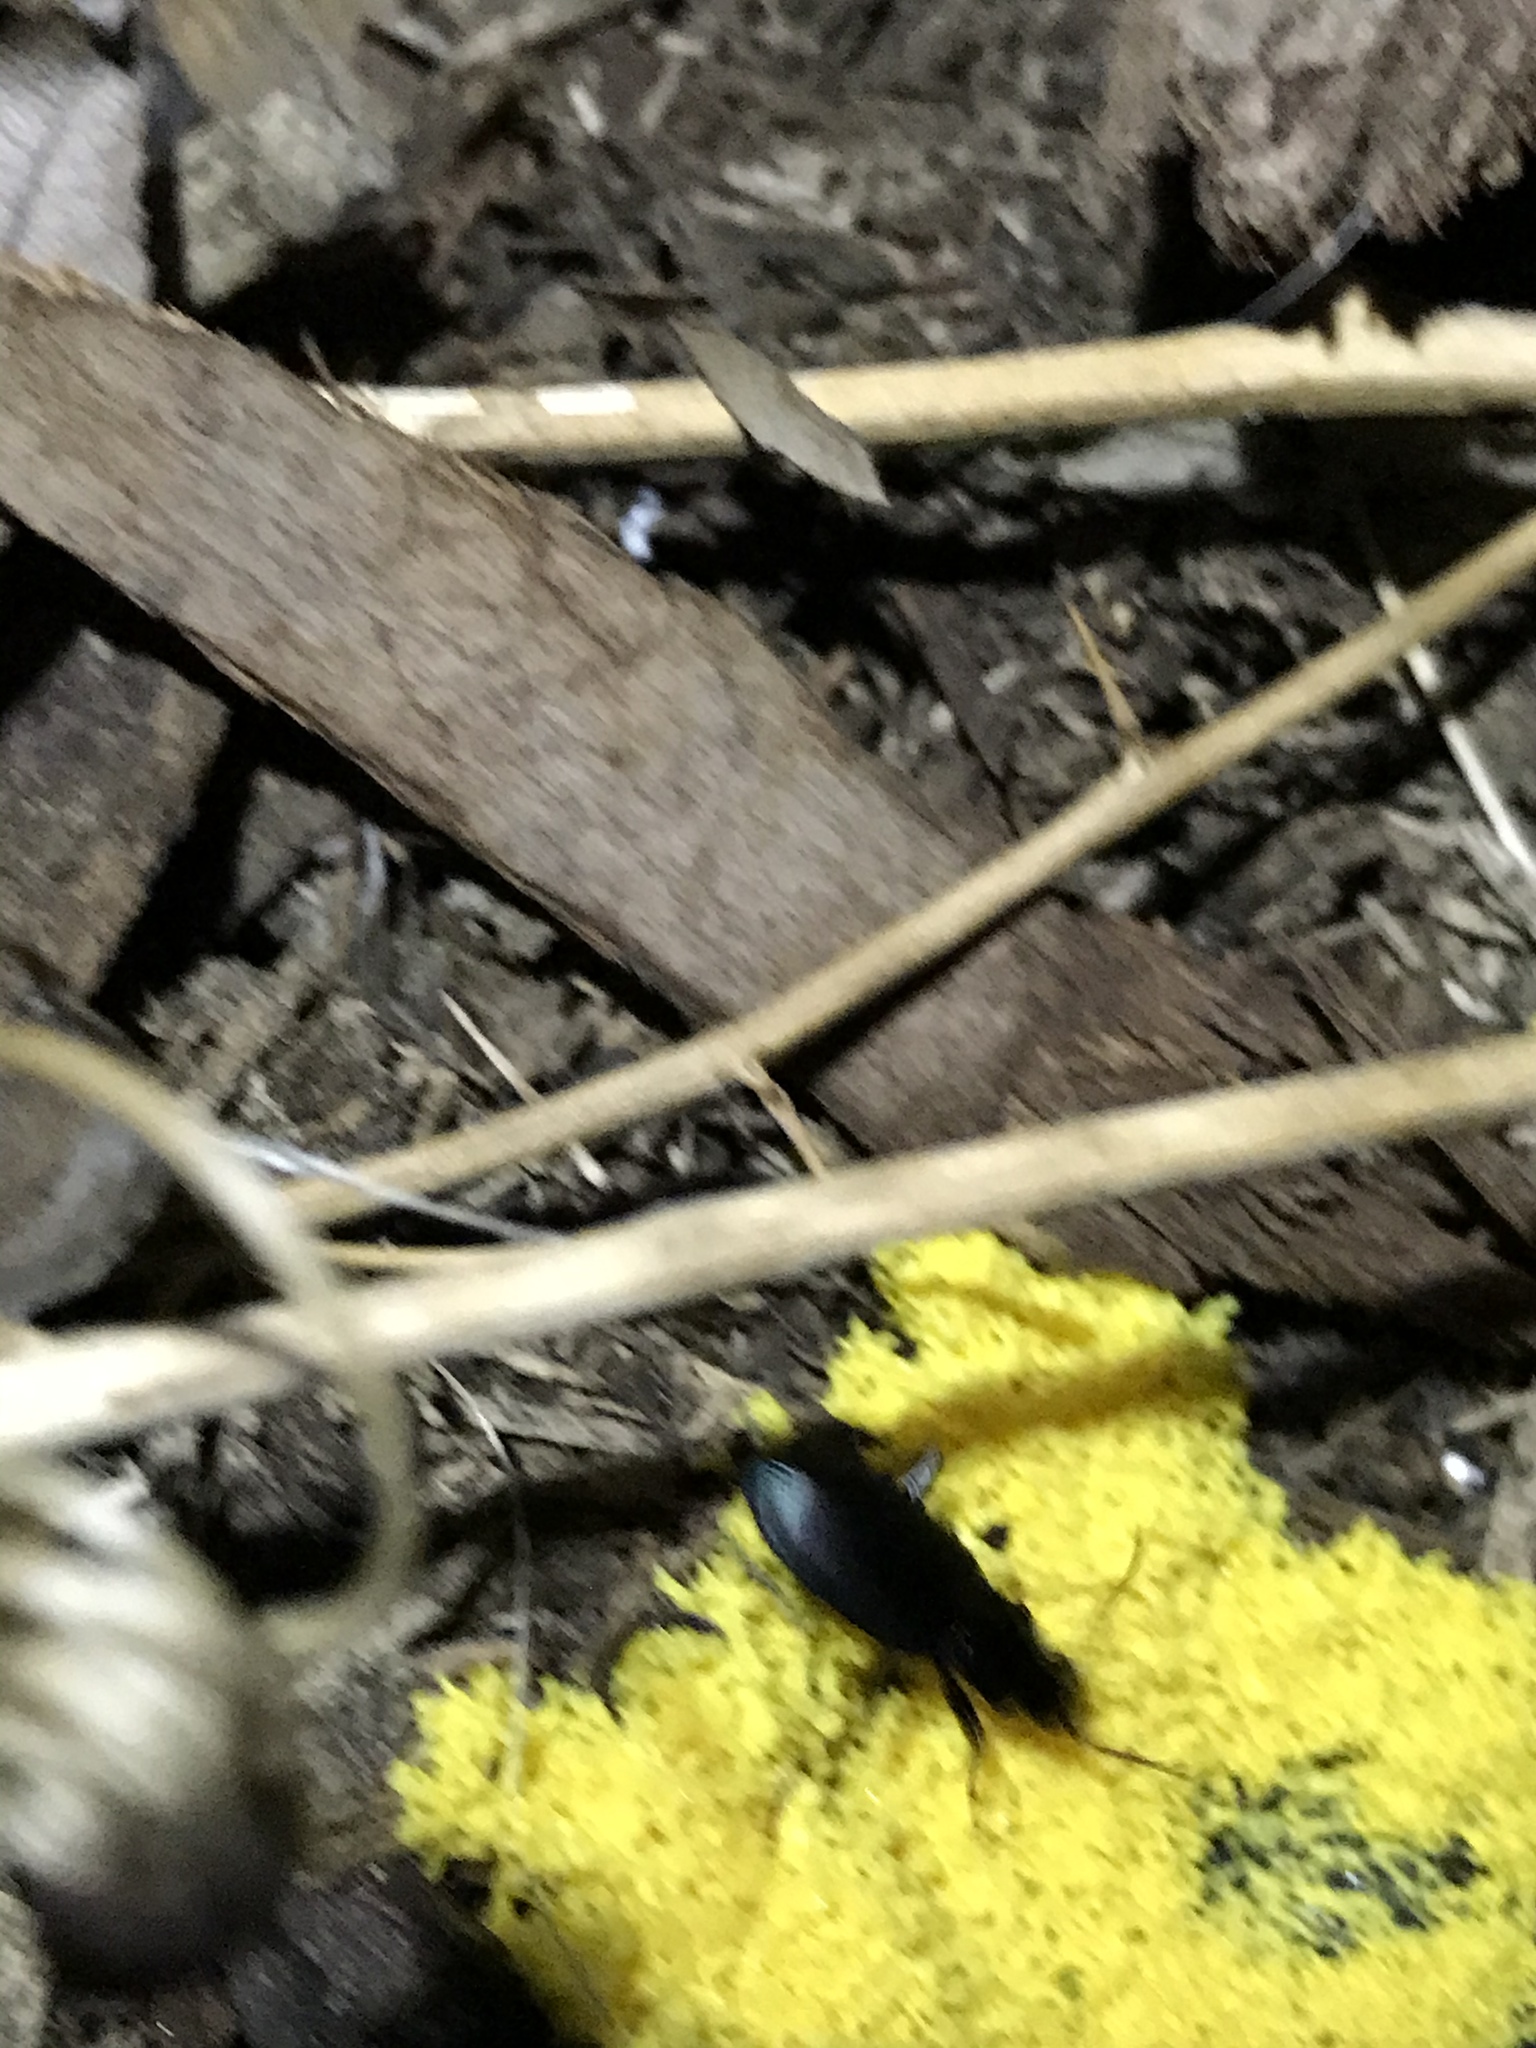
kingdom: Animalia
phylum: Arthropoda
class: Insecta
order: Coleoptera
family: Carabidae
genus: Laemostenus
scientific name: Laemostenus complanatus
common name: Cosmopolitan ground beetle
